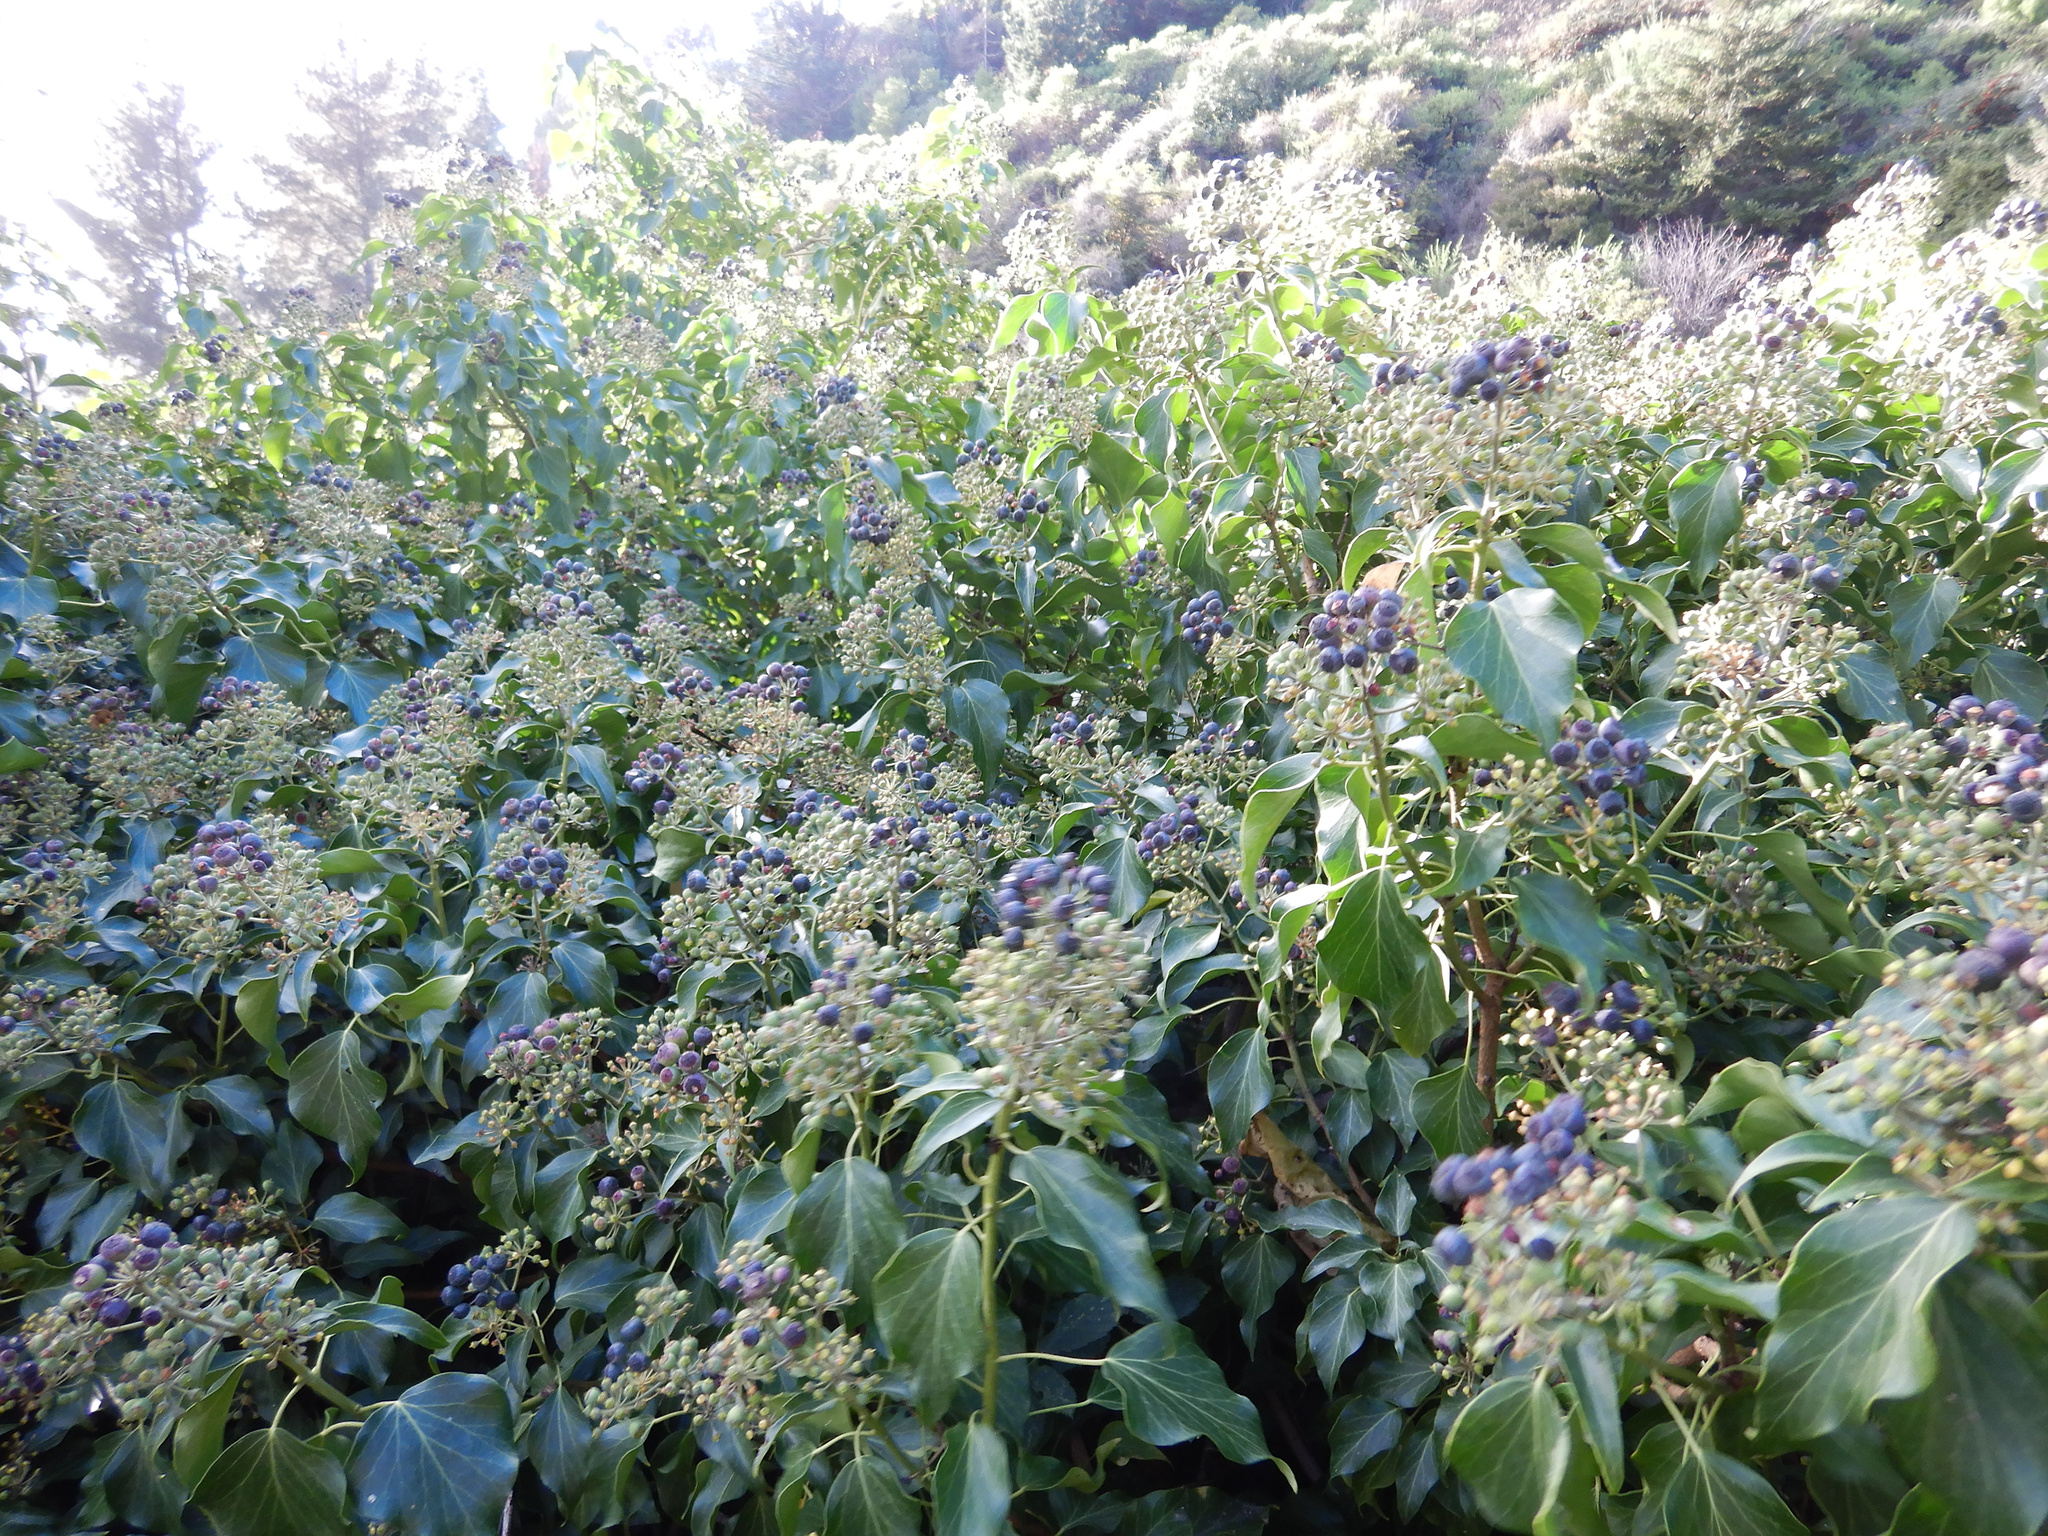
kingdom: Plantae
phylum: Tracheophyta
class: Magnoliopsida
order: Apiales
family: Araliaceae
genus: Hedera
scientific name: Hedera helix
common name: Ivy
